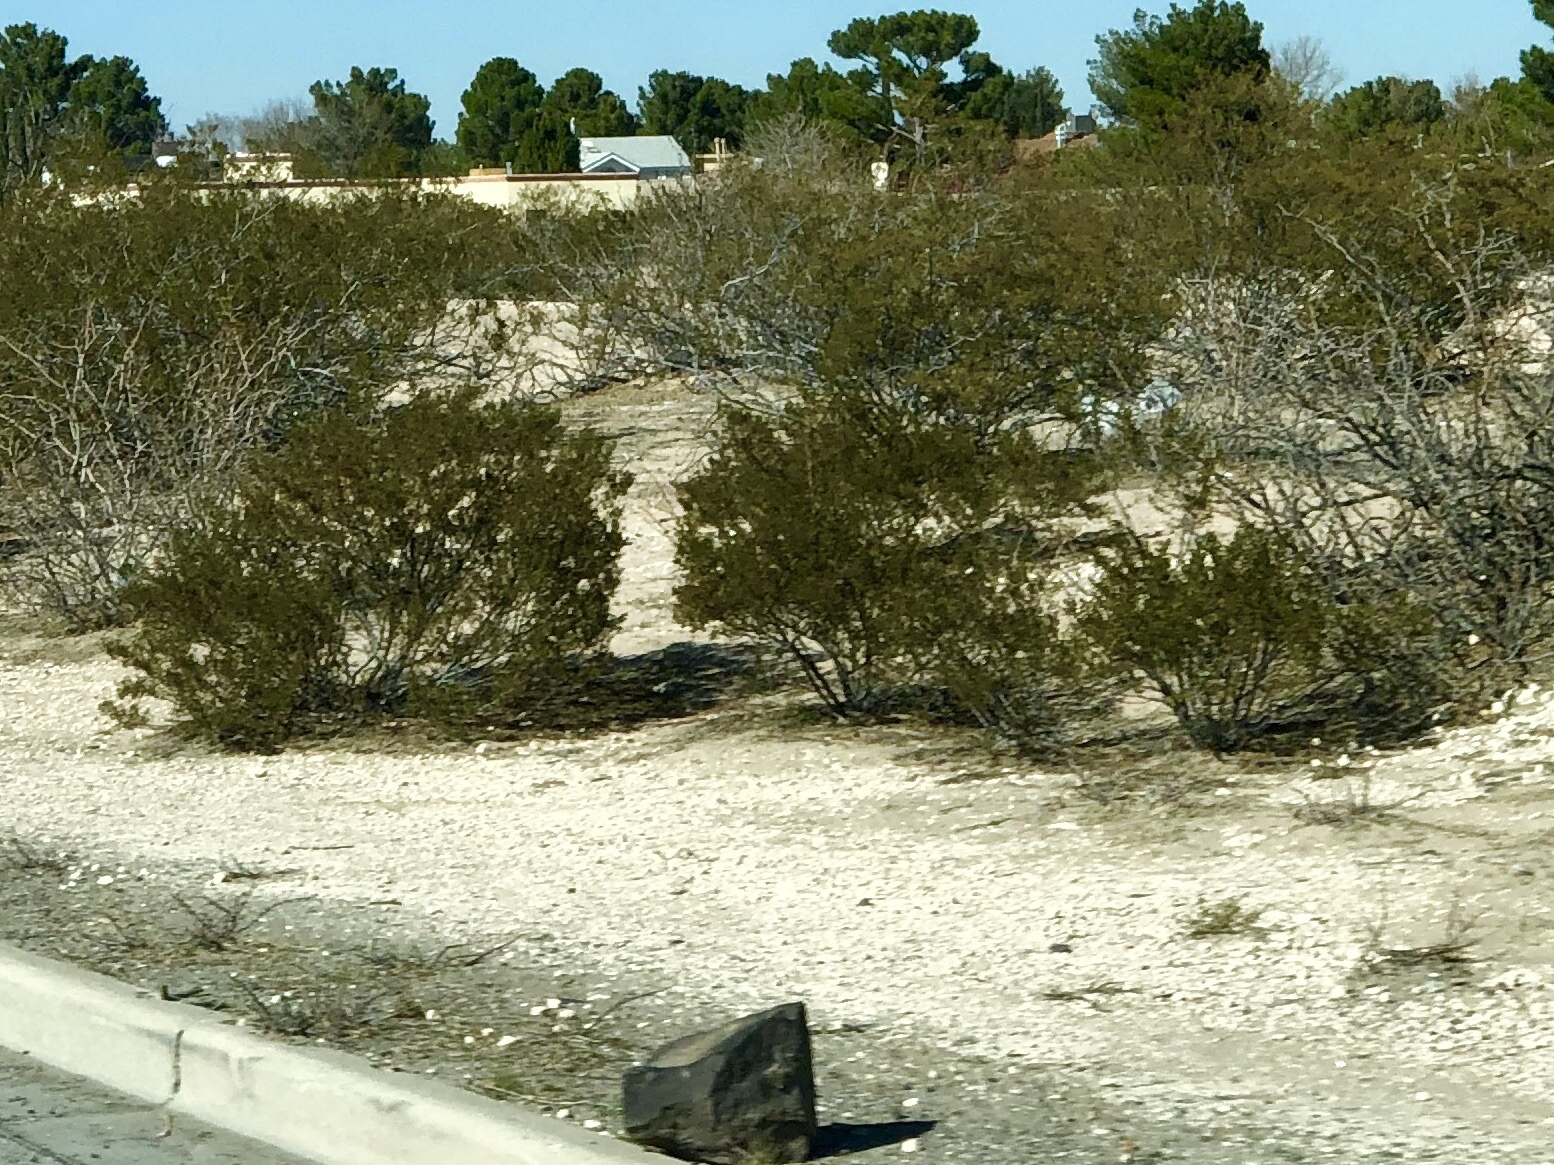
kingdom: Plantae
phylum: Tracheophyta
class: Magnoliopsida
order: Zygophyllales
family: Zygophyllaceae
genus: Larrea
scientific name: Larrea tridentata
